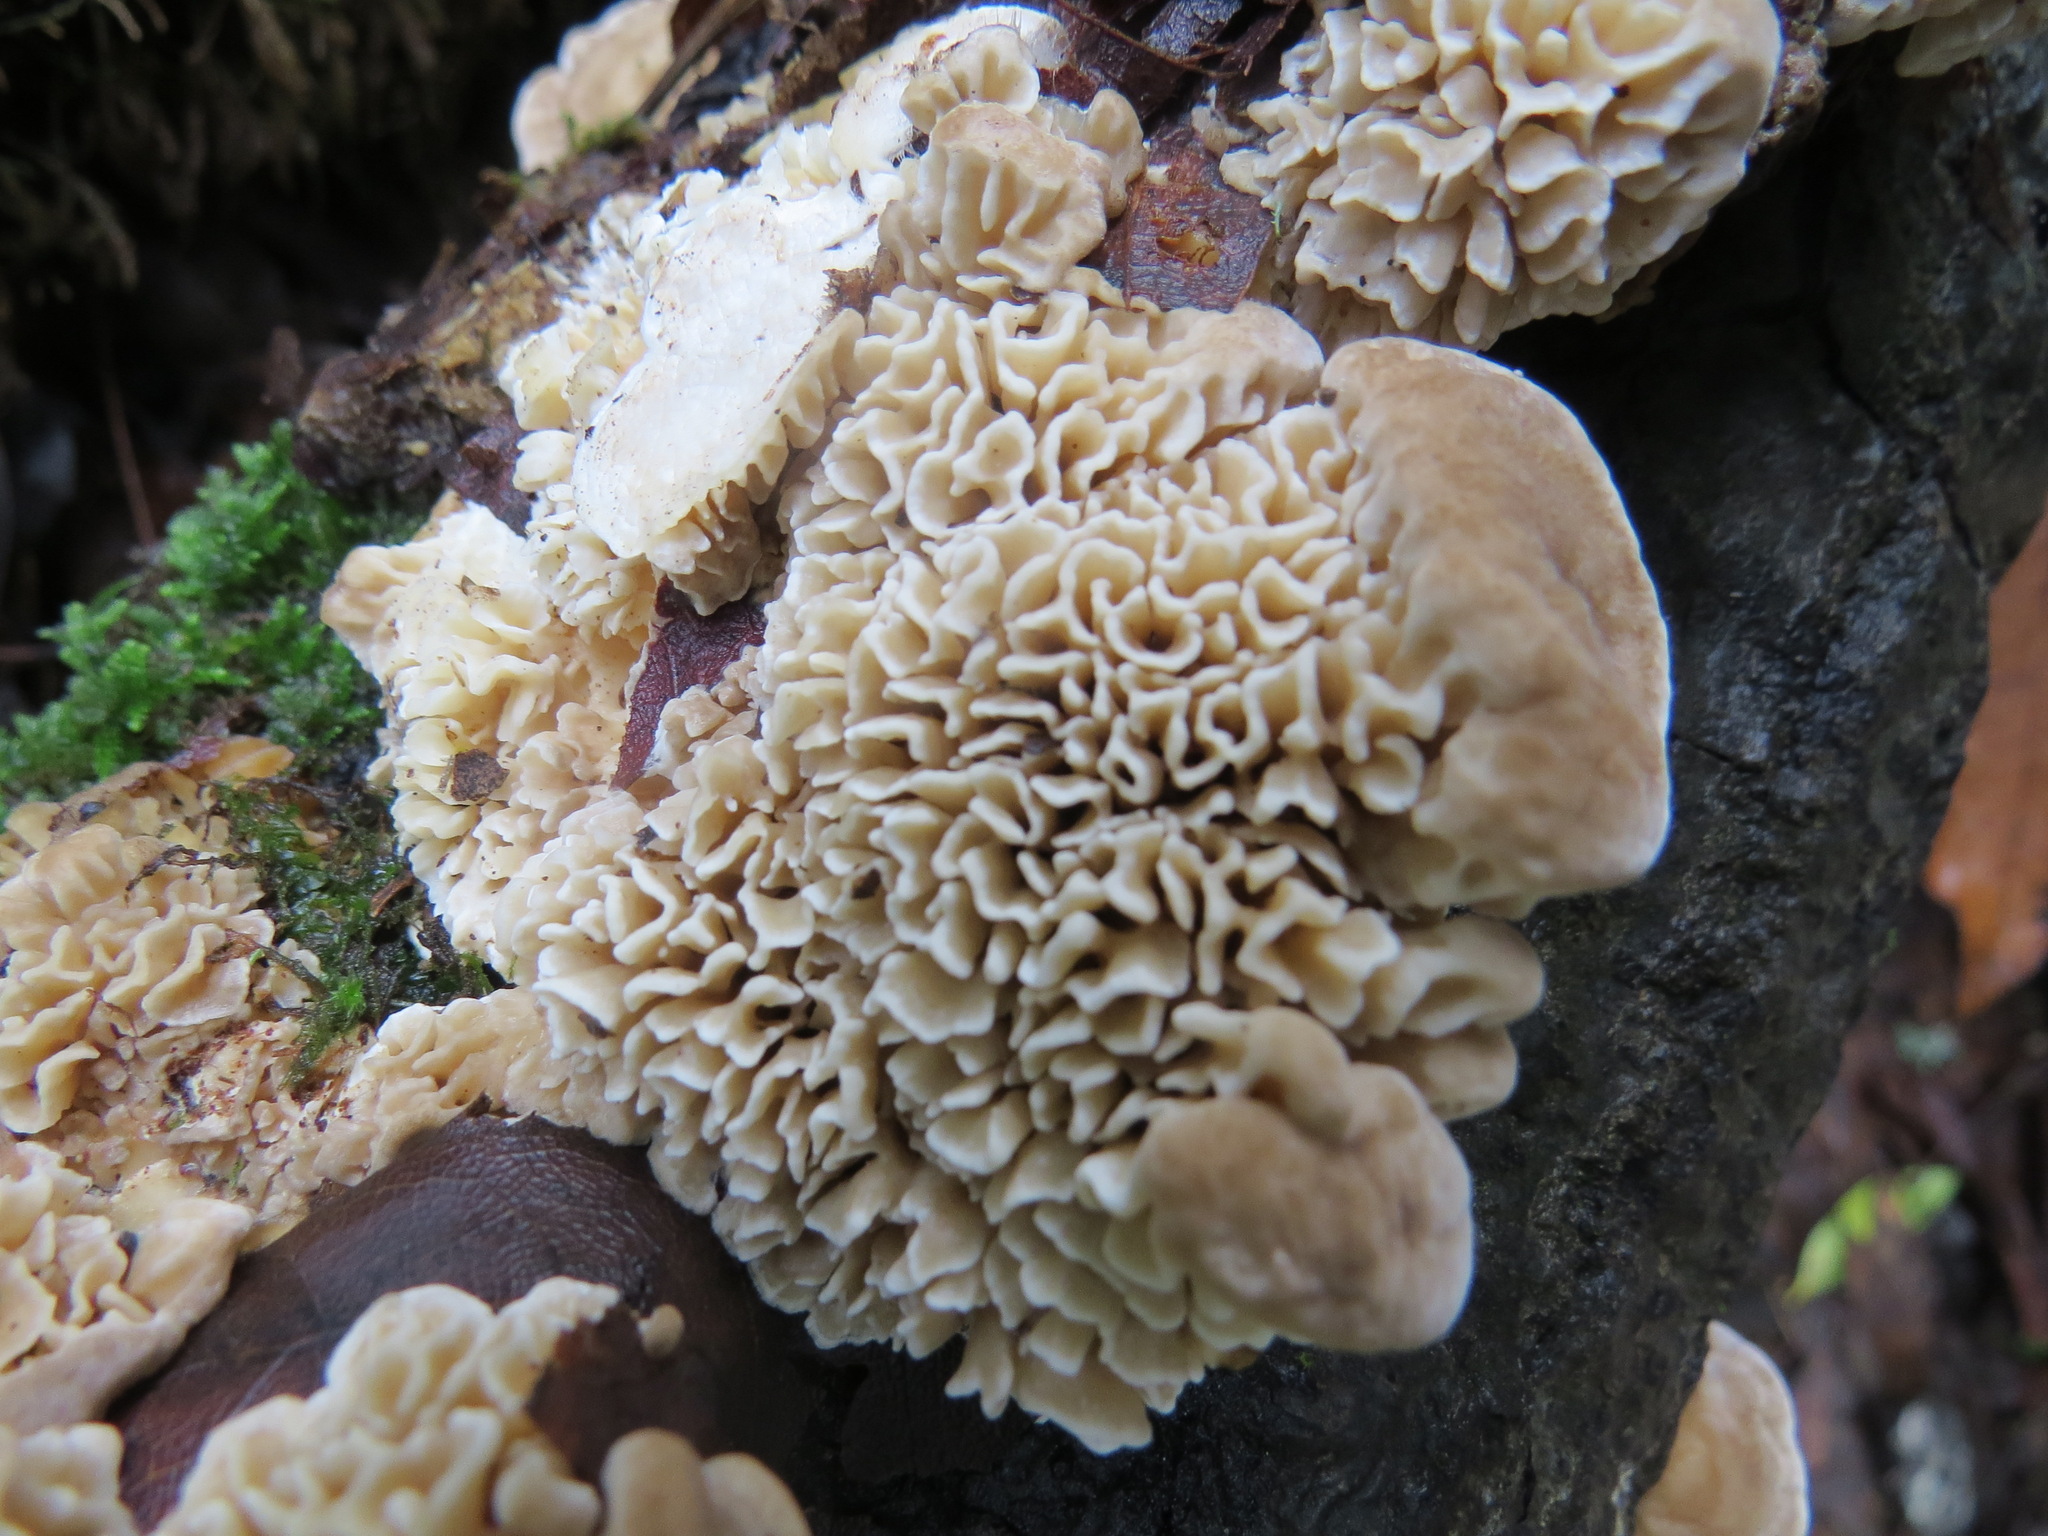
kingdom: Fungi
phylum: Basidiomycota
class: Agaricomycetes
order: Polyporales
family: Polyporaceae
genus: Lenzites
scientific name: Lenzites betulinus
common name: Birch mazegill
